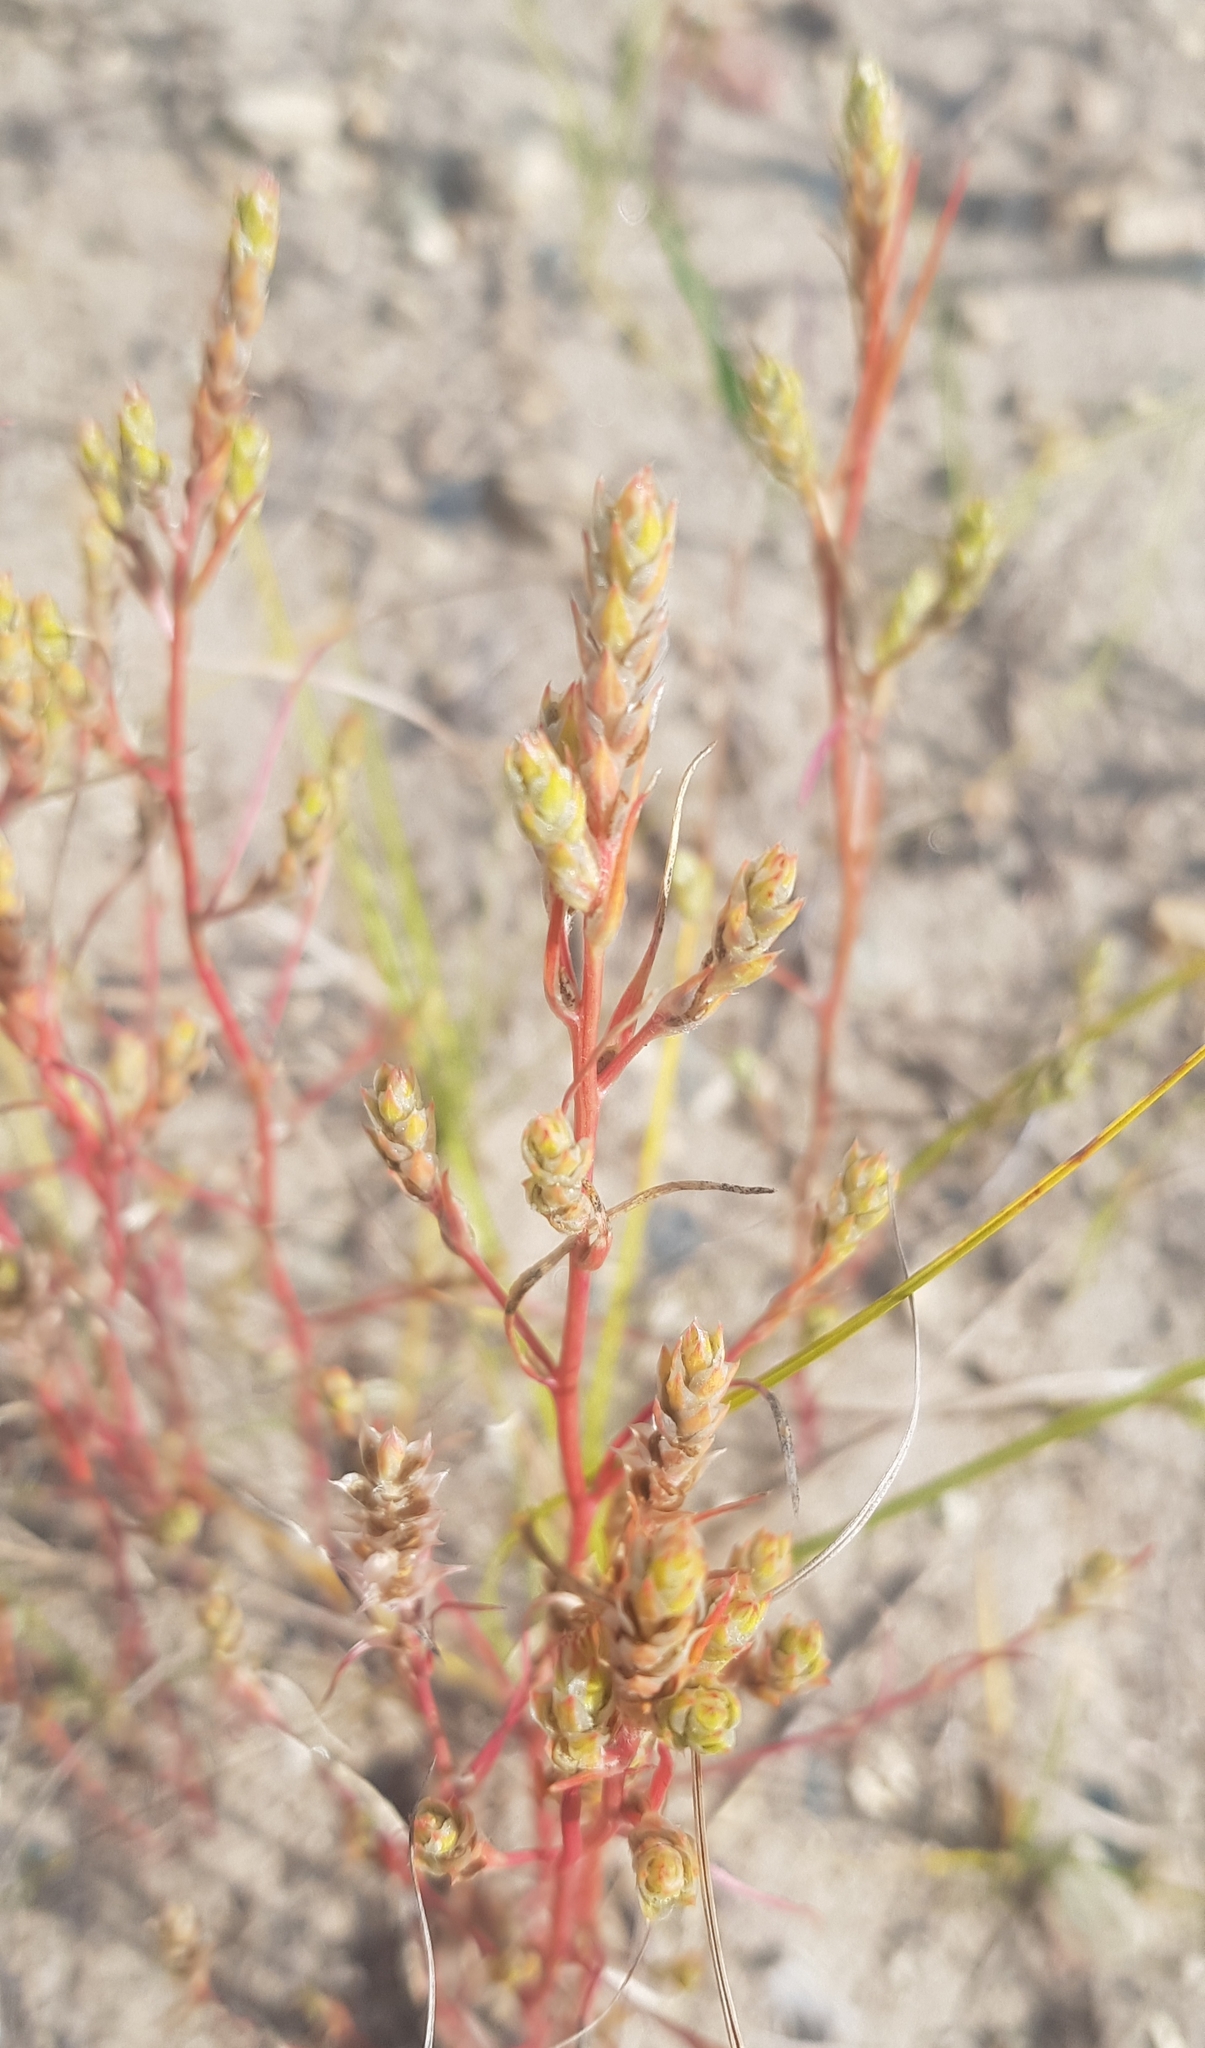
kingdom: Plantae
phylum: Tracheophyta
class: Magnoliopsida
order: Caryophyllales
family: Amaranthaceae
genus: Corispermum
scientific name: Corispermum chinganicum
